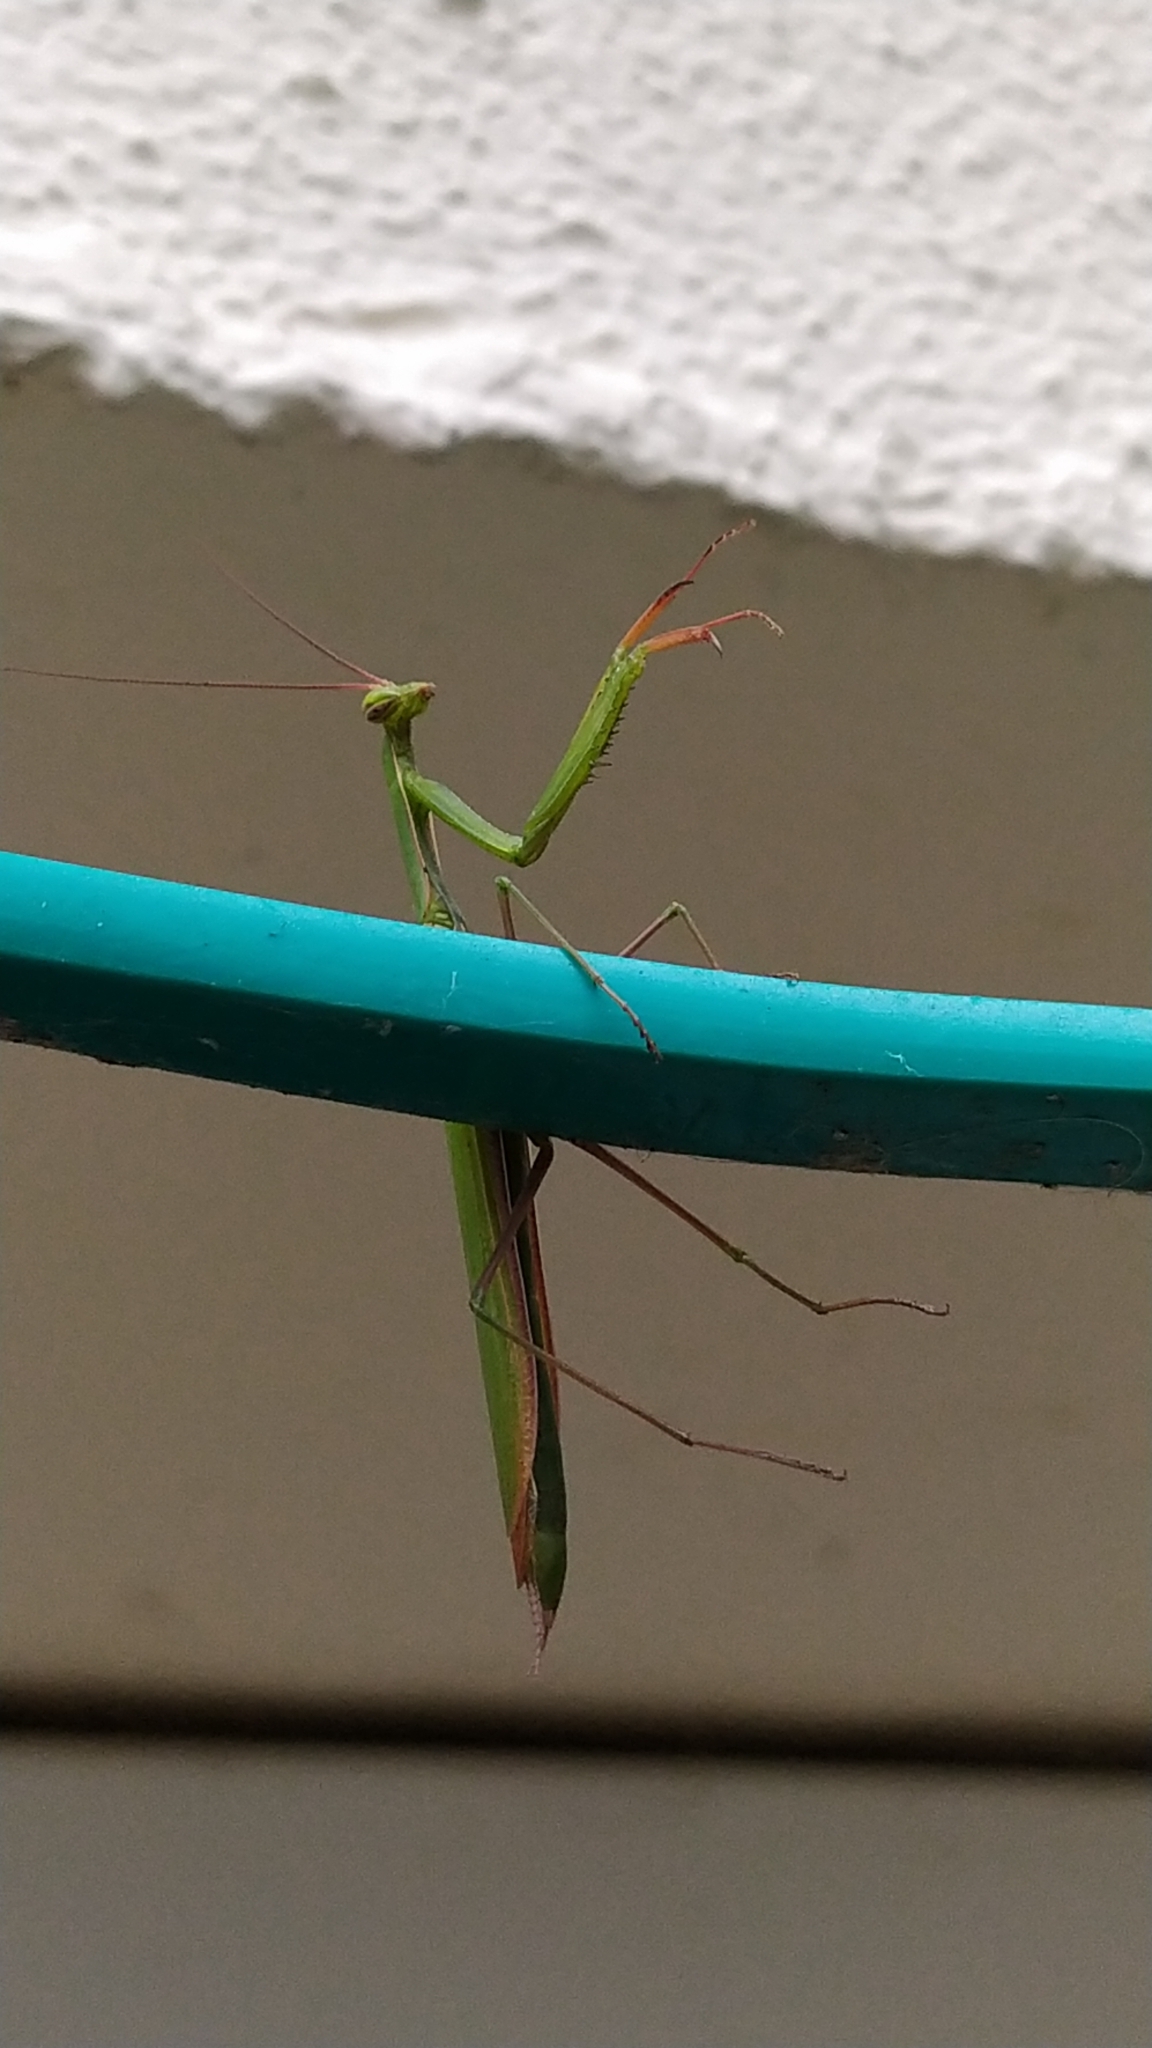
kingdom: Animalia
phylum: Arthropoda
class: Insecta
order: Mantodea
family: Mantidae
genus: Mantis
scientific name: Mantis religiosa
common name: Praying mantis
